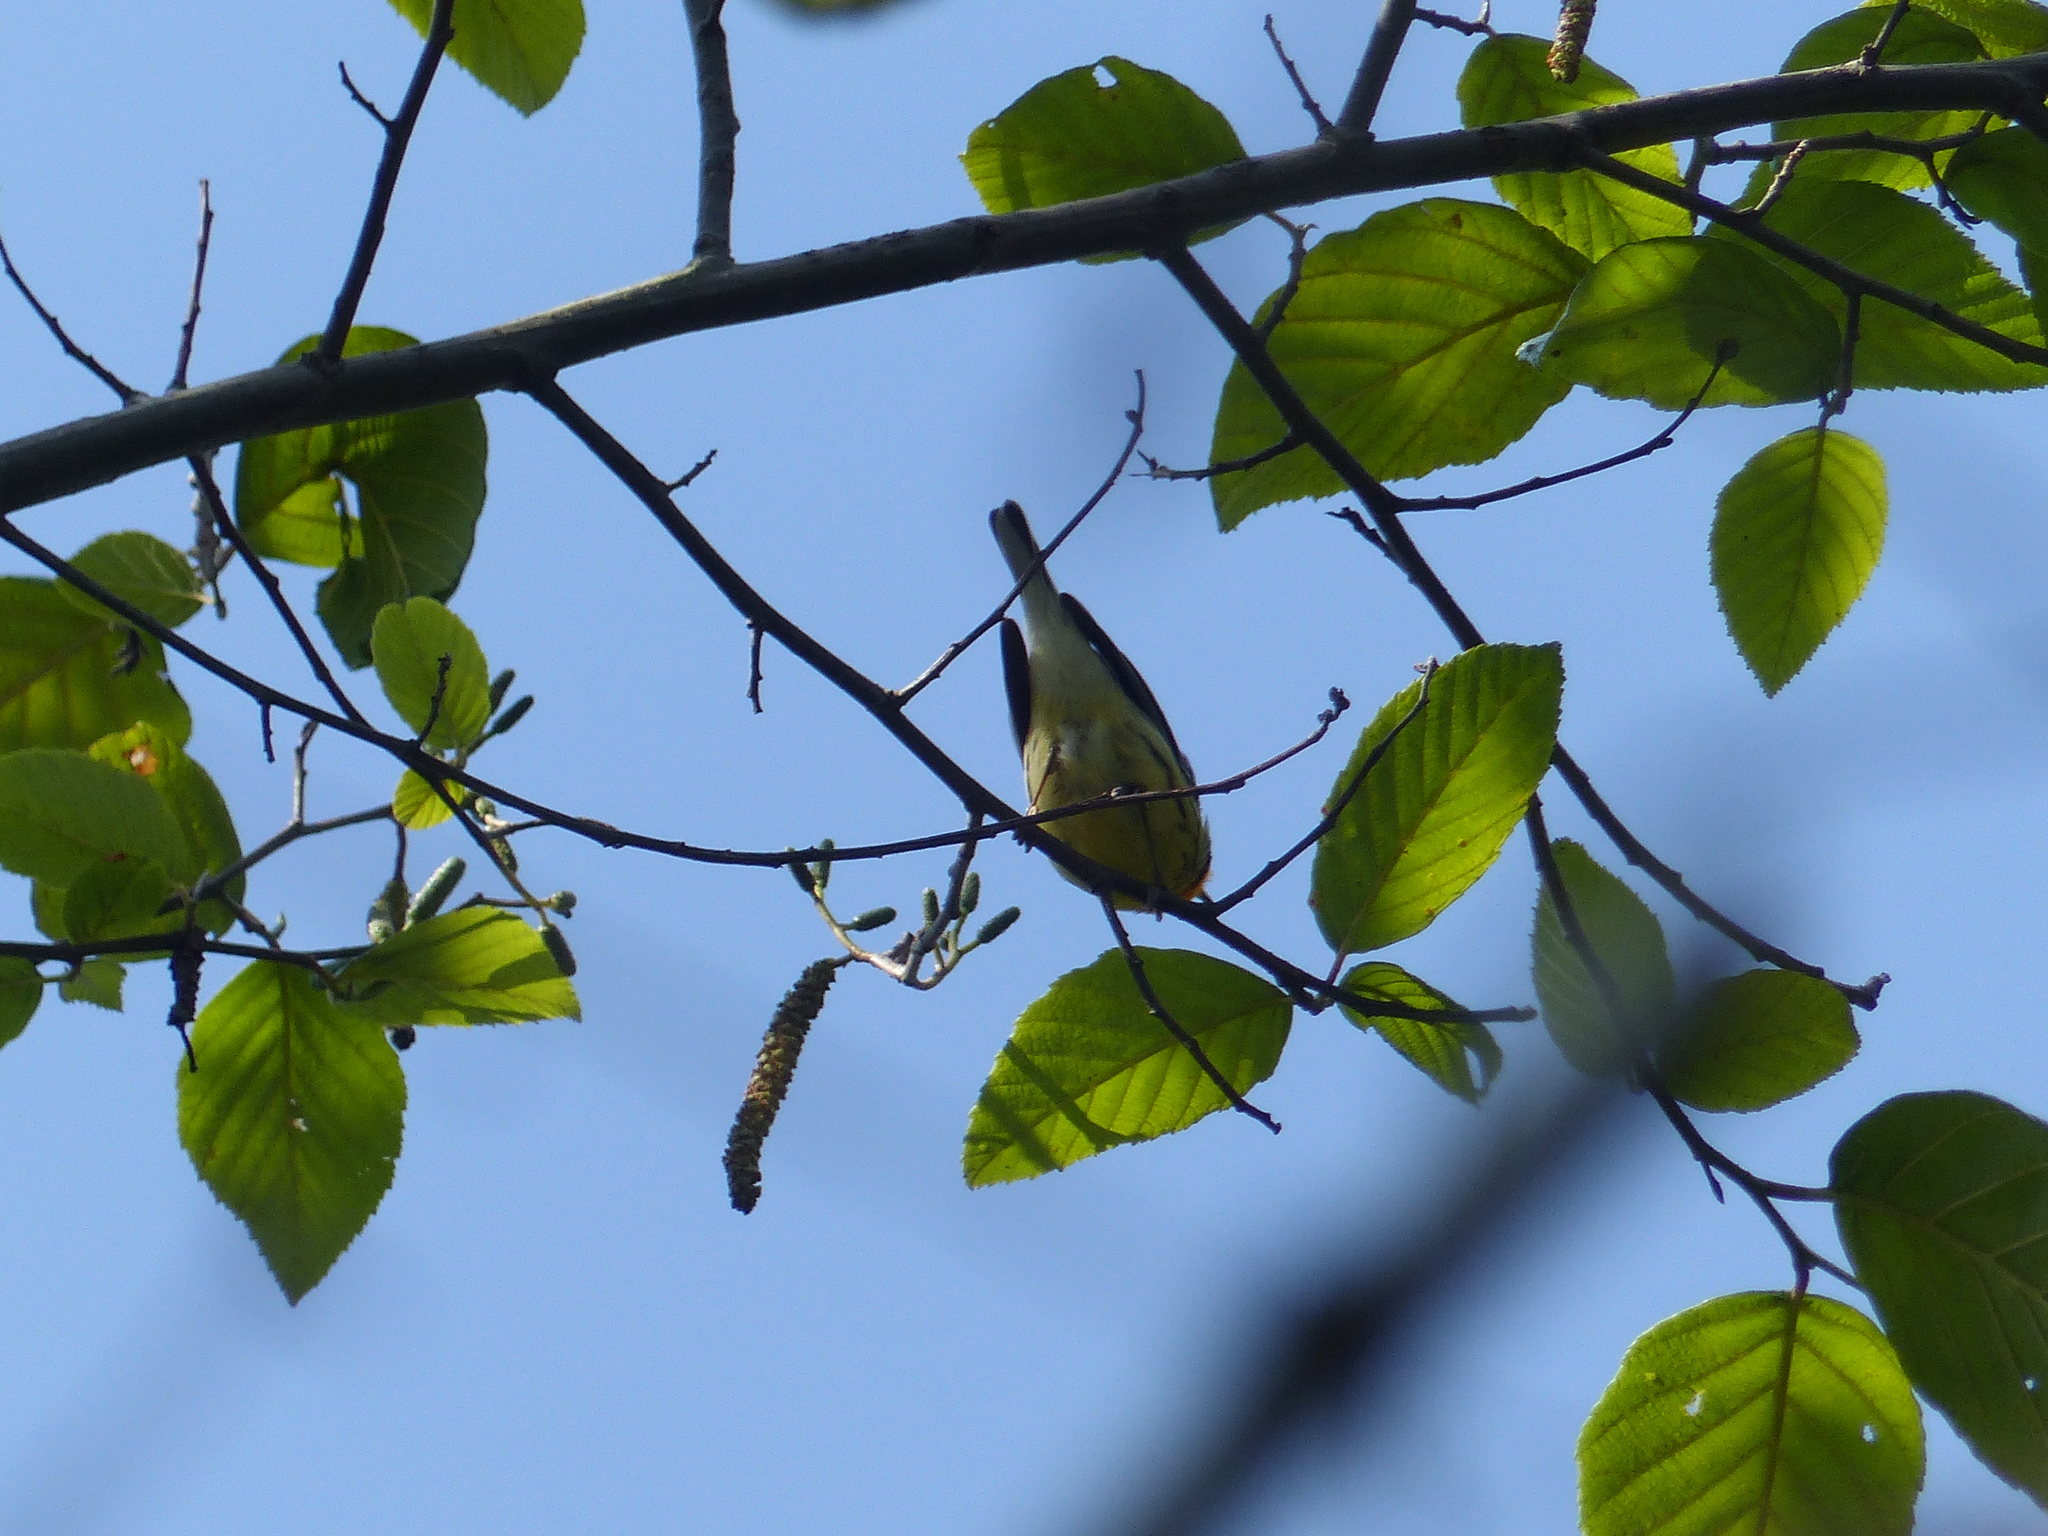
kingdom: Animalia
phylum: Chordata
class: Aves
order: Passeriformes
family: Parulidae
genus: Setophaga
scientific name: Setophaga fusca
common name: Blackburnian warbler
